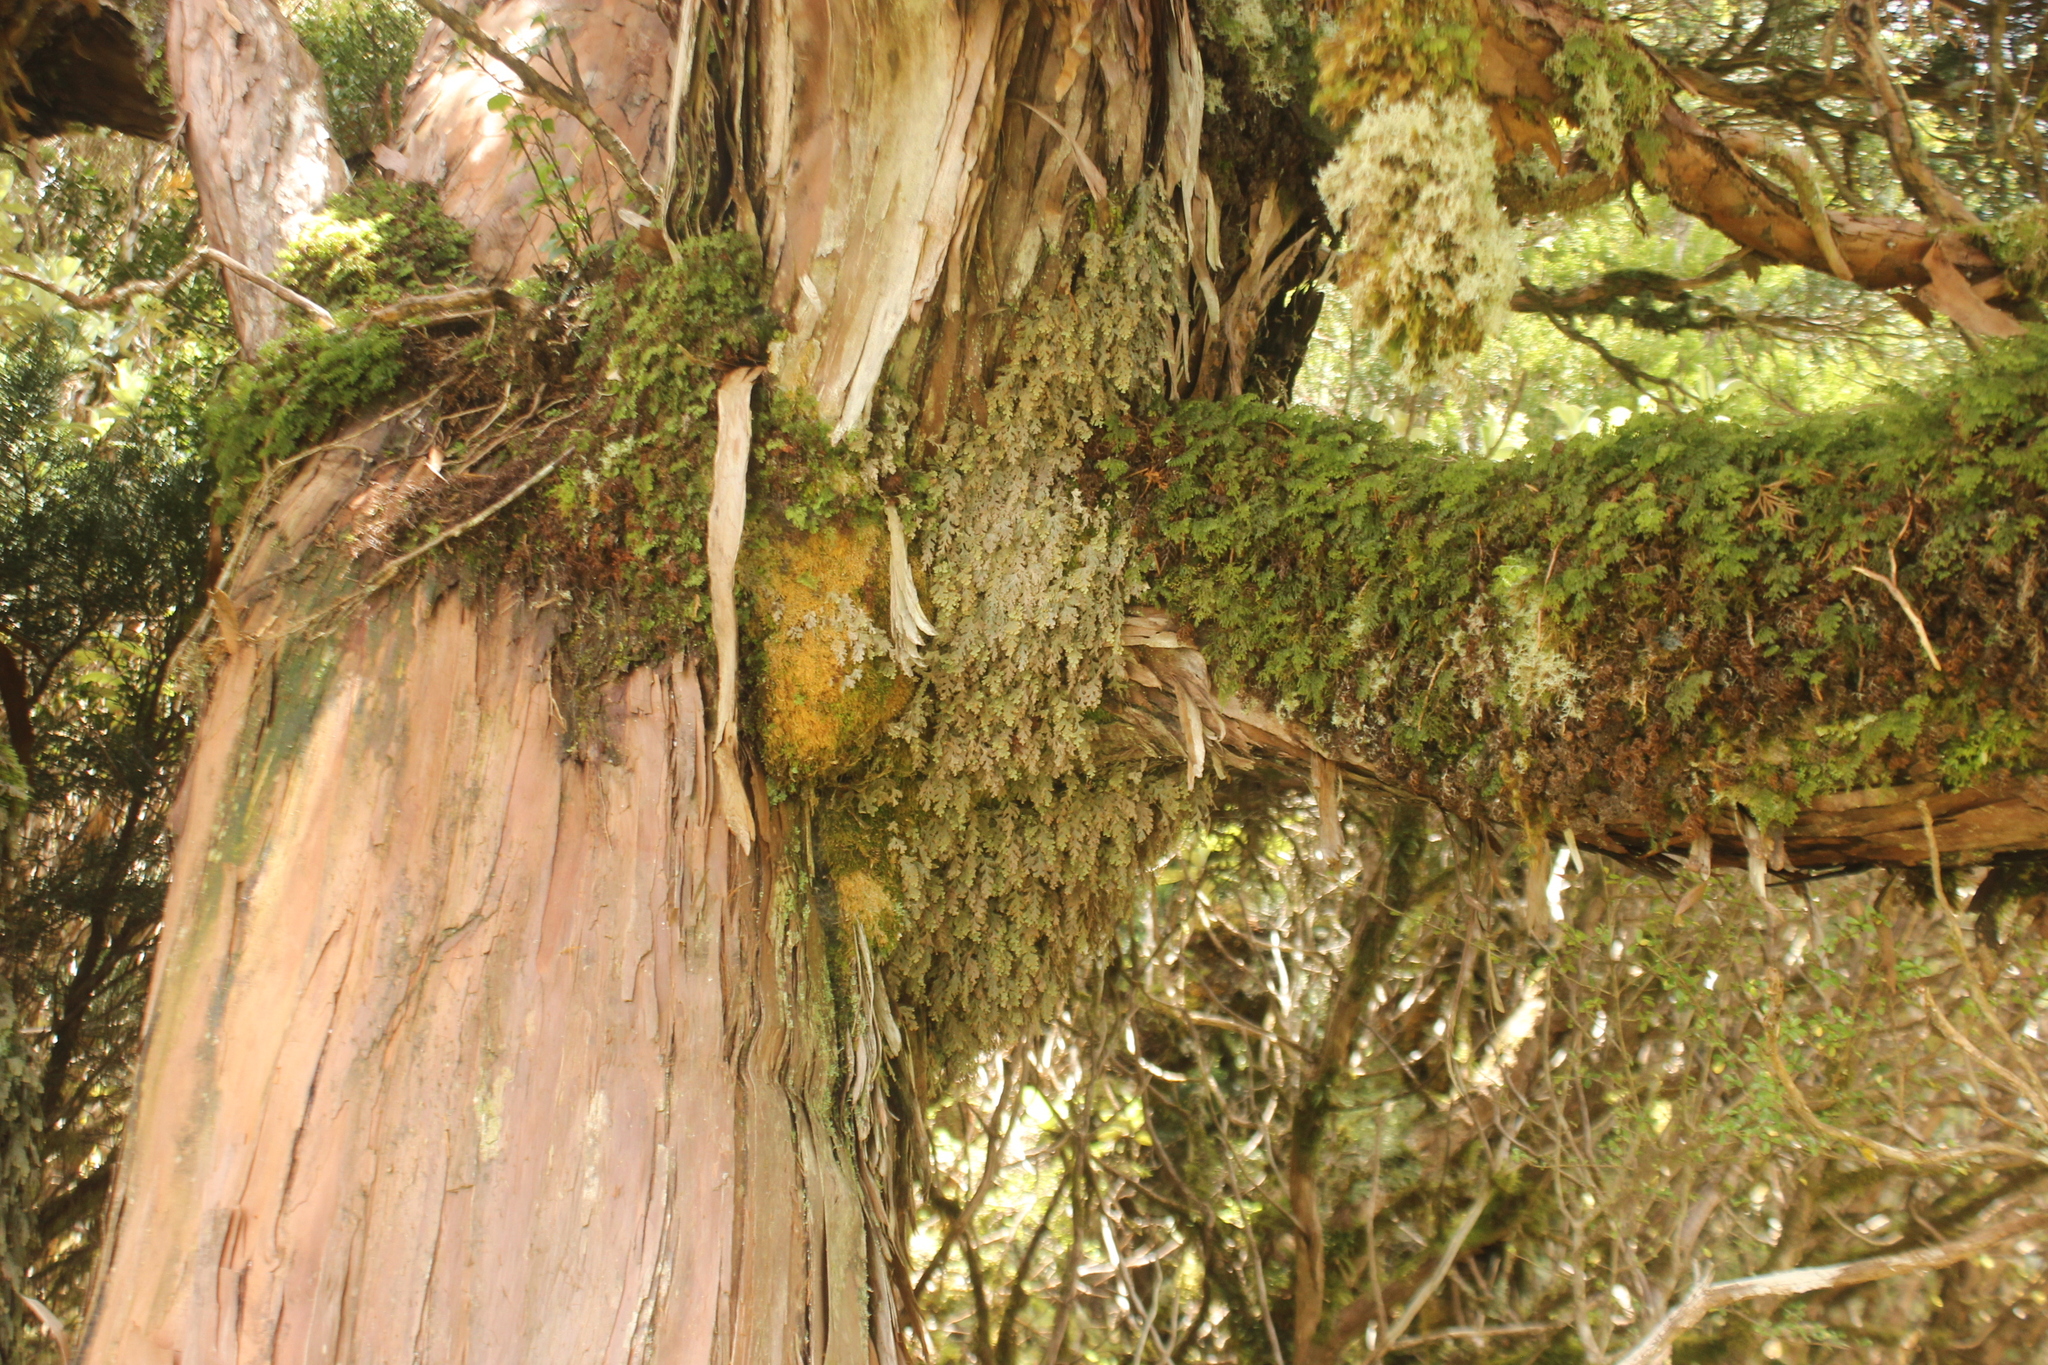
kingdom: Plantae
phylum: Tracheophyta
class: Polypodiopsida
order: Hymenophyllales
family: Hymenophyllaceae
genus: Hymenophyllum
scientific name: Hymenophyllum malingii
